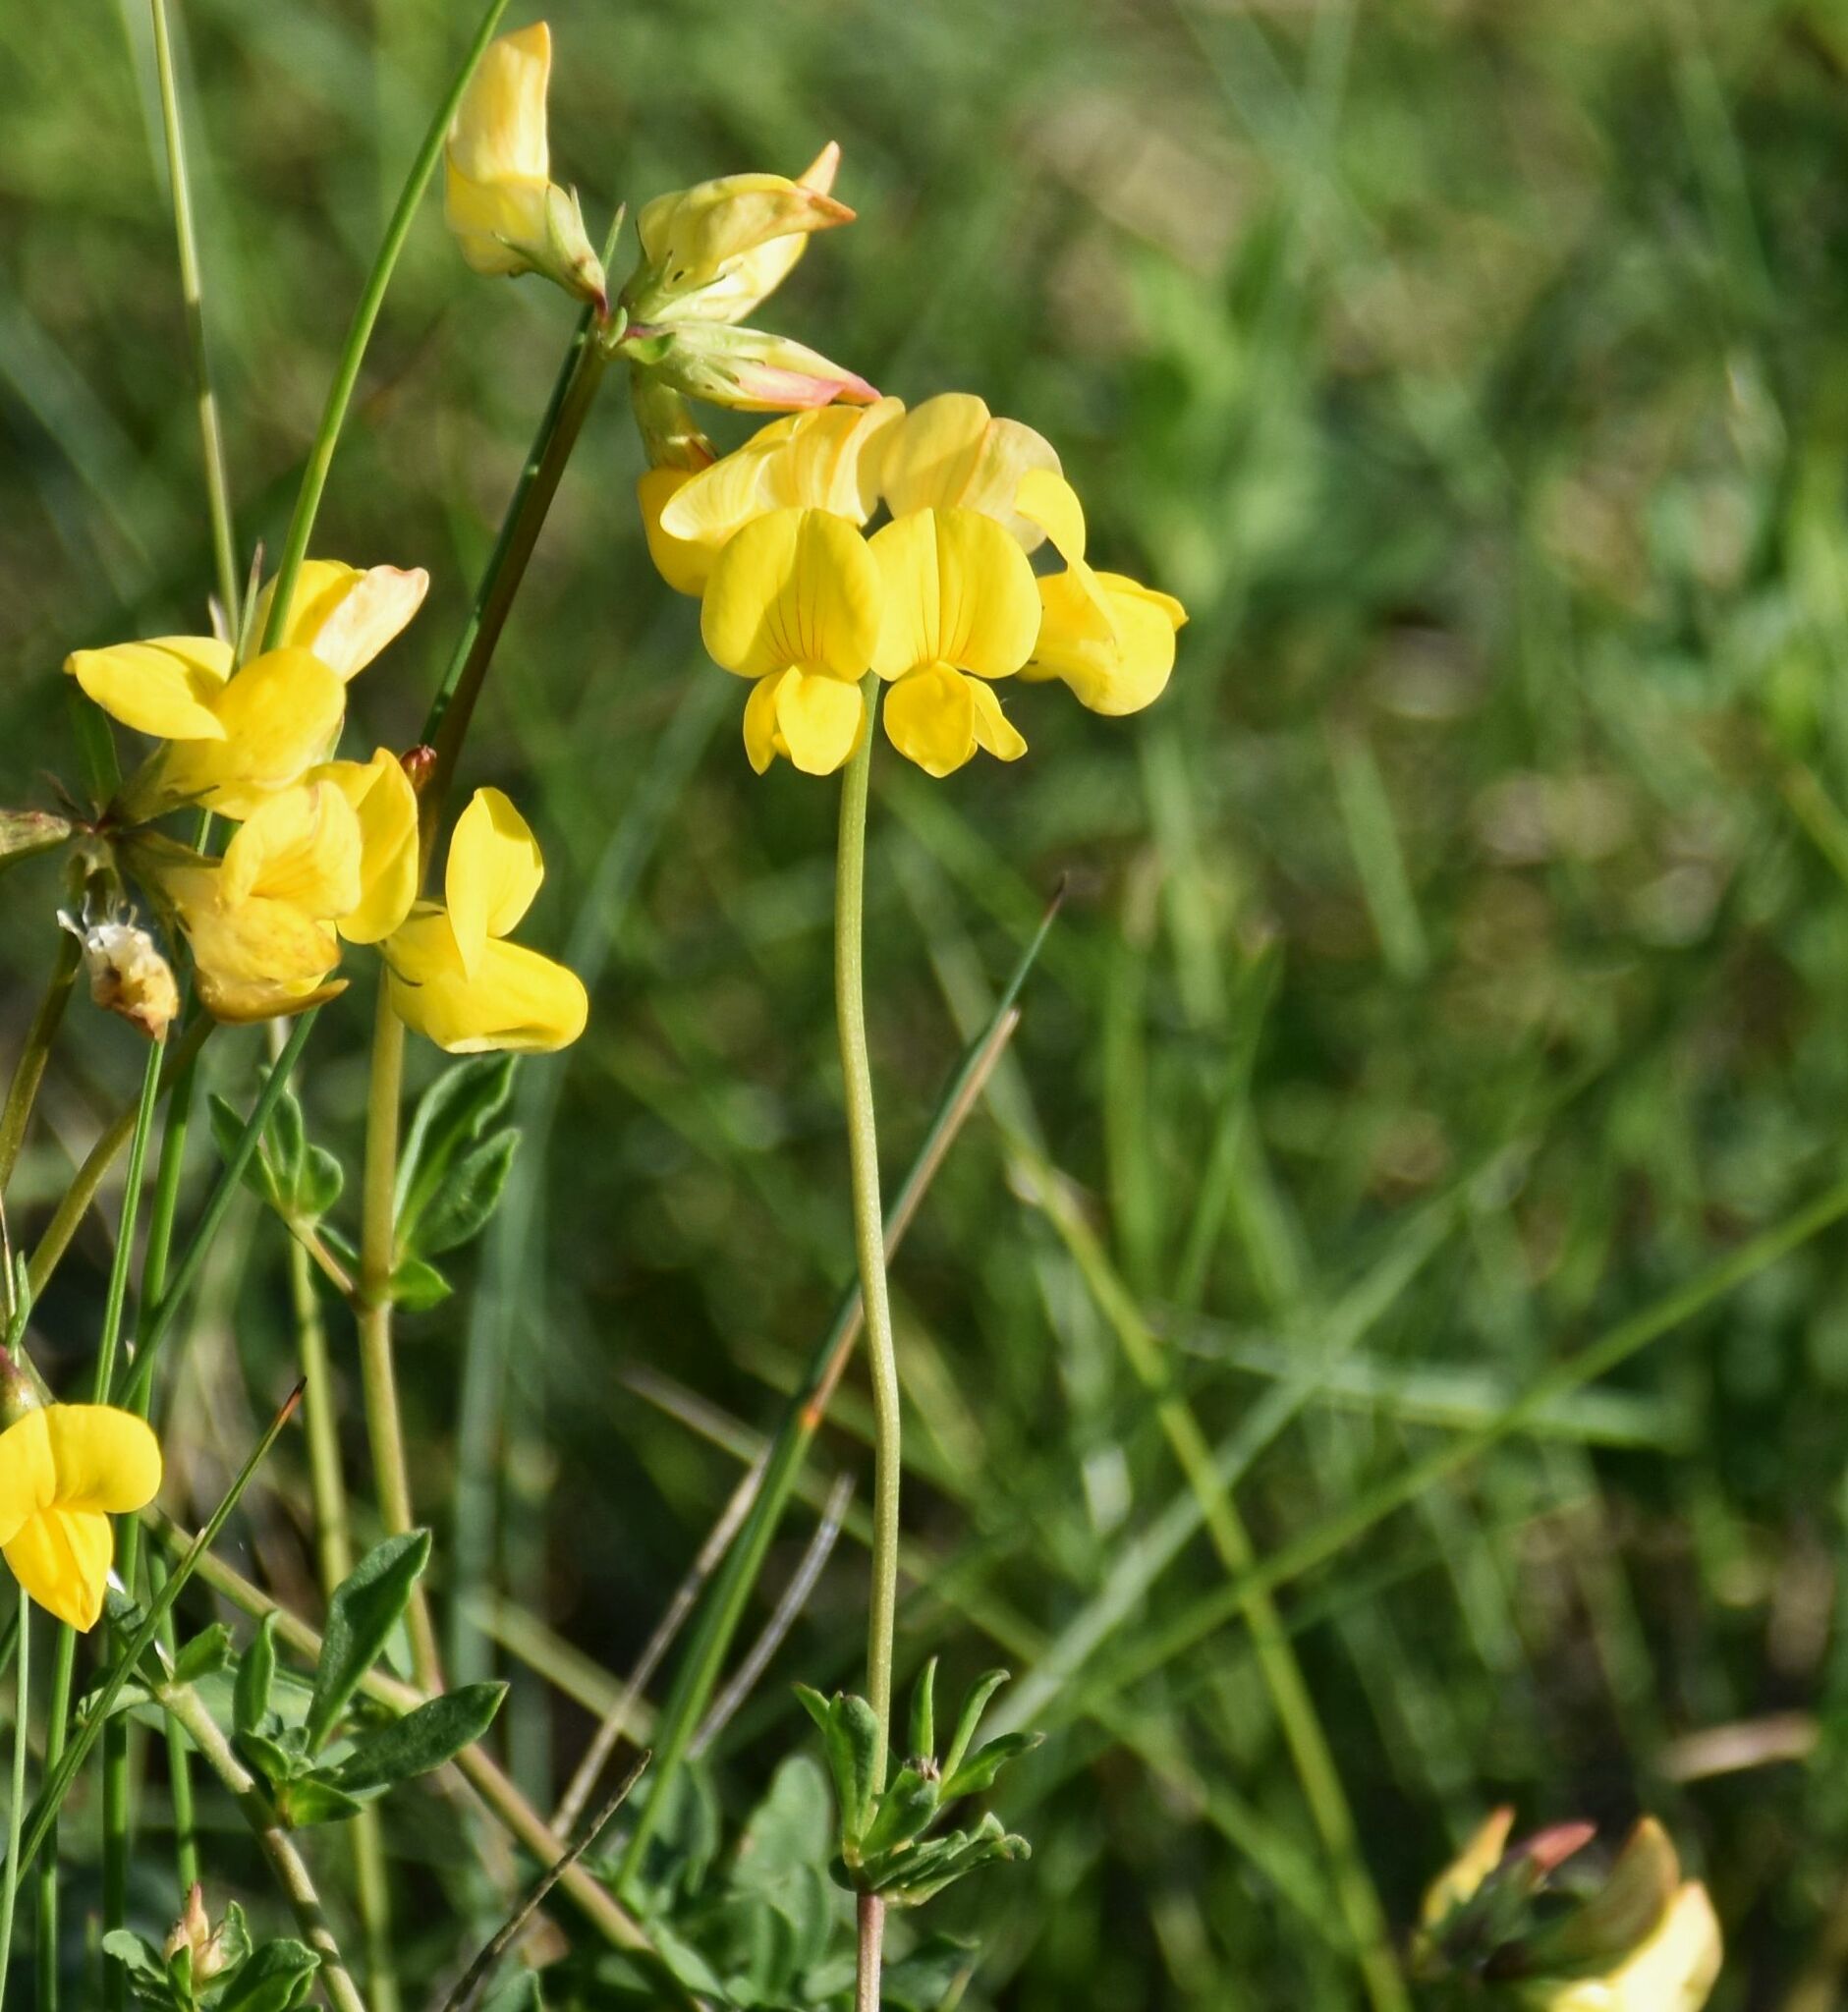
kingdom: Plantae
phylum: Tracheophyta
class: Magnoliopsida
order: Fabales
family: Fabaceae
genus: Lotus
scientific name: Lotus corniculatus
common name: Common bird's-foot-trefoil
